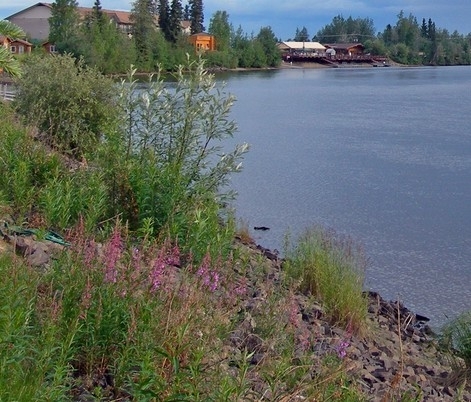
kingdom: Plantae
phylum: Tracheophyta
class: Magnoliopsida
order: Myrtales
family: Onagraceae
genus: Chamaenerion
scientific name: Chamaenerion angustifolium
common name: Fireweed
